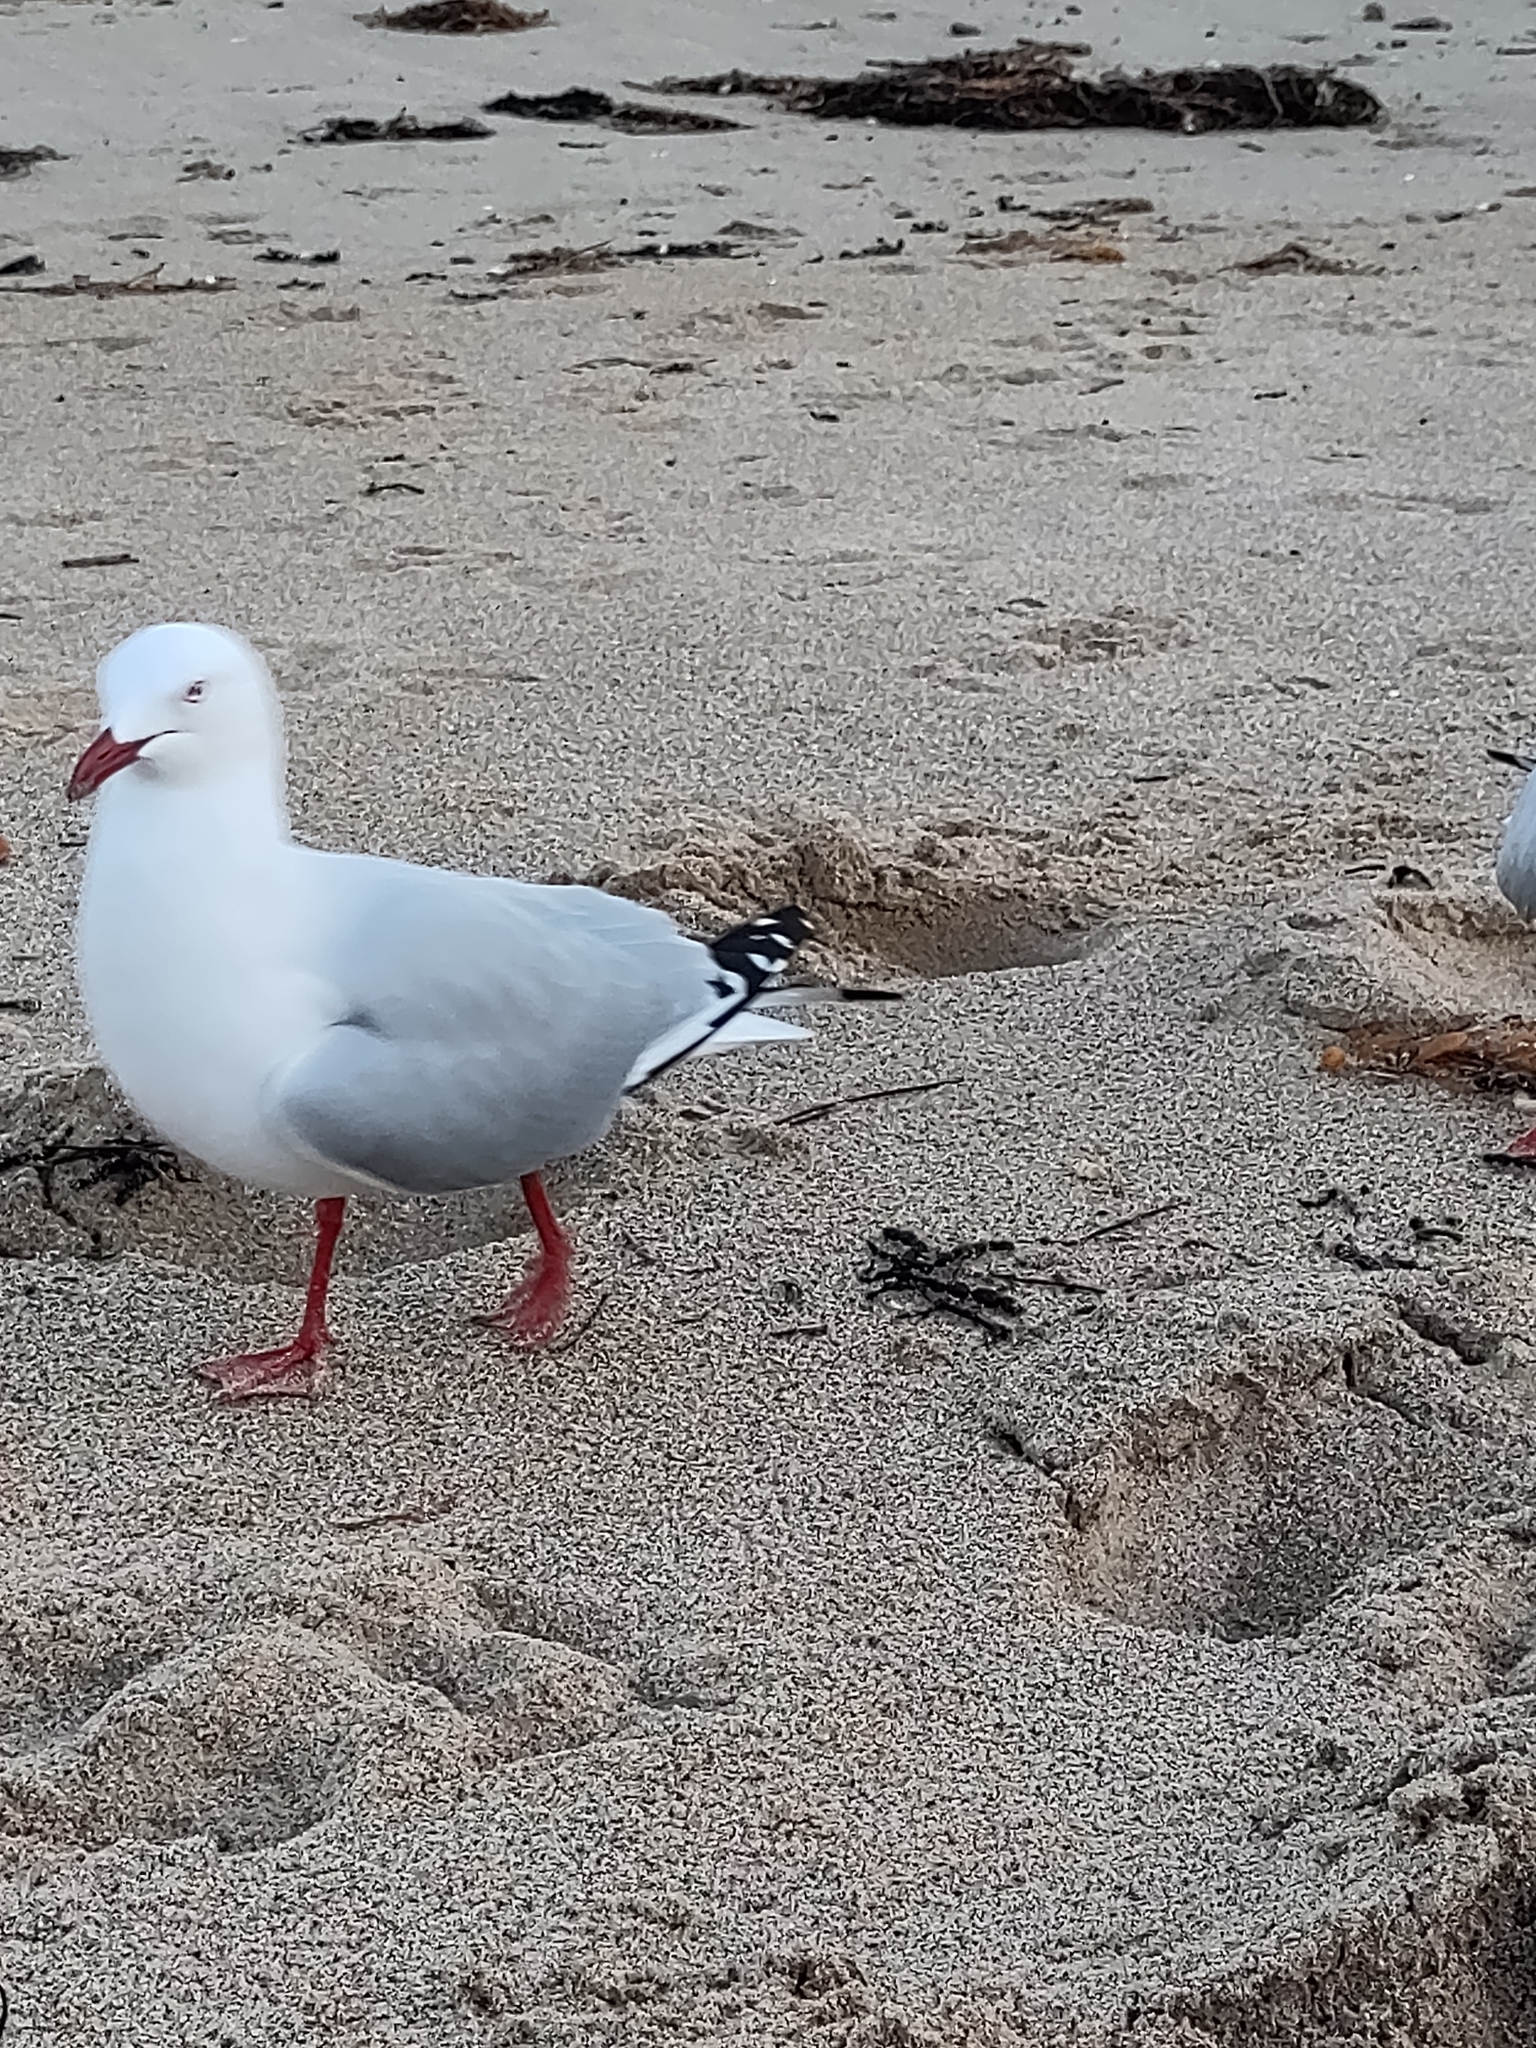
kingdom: Animalia
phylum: Chordata
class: Aves
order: Charadriiformes
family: Laridae
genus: Chroicocephalus
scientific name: Chroicocephalus novaehollandiae
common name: Silver gull
